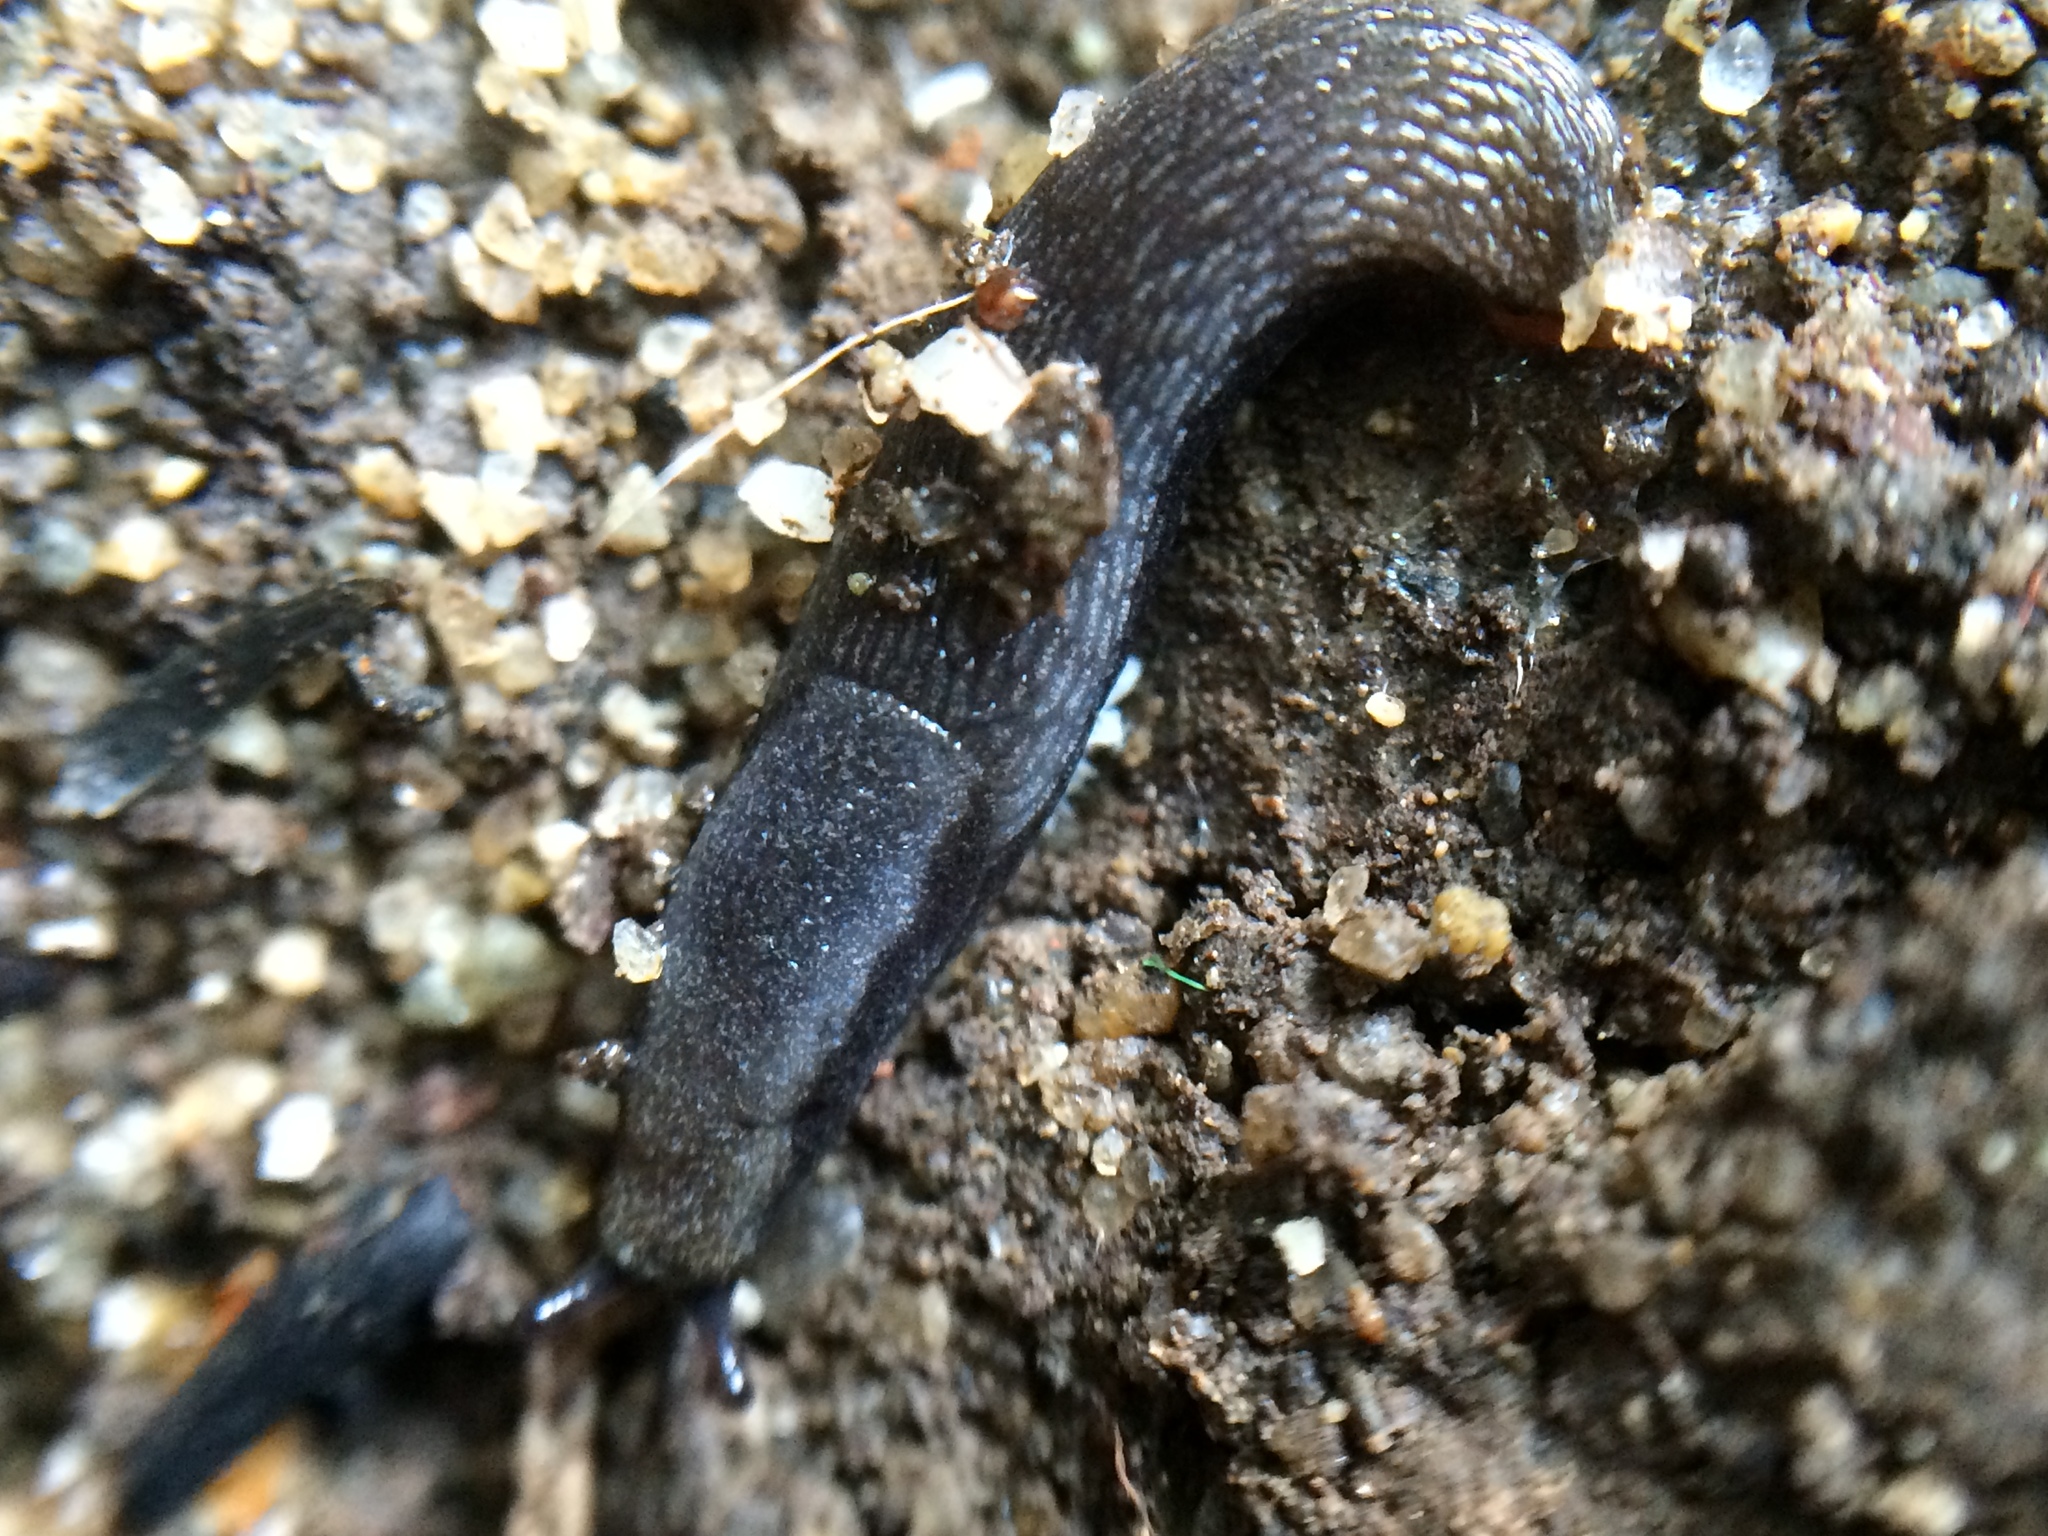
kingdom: Animalia
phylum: Mollusca
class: Gastropoda
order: Stylommatophora
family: Arionidae
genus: Arion
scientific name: Arion hortensis
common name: Garden arion
